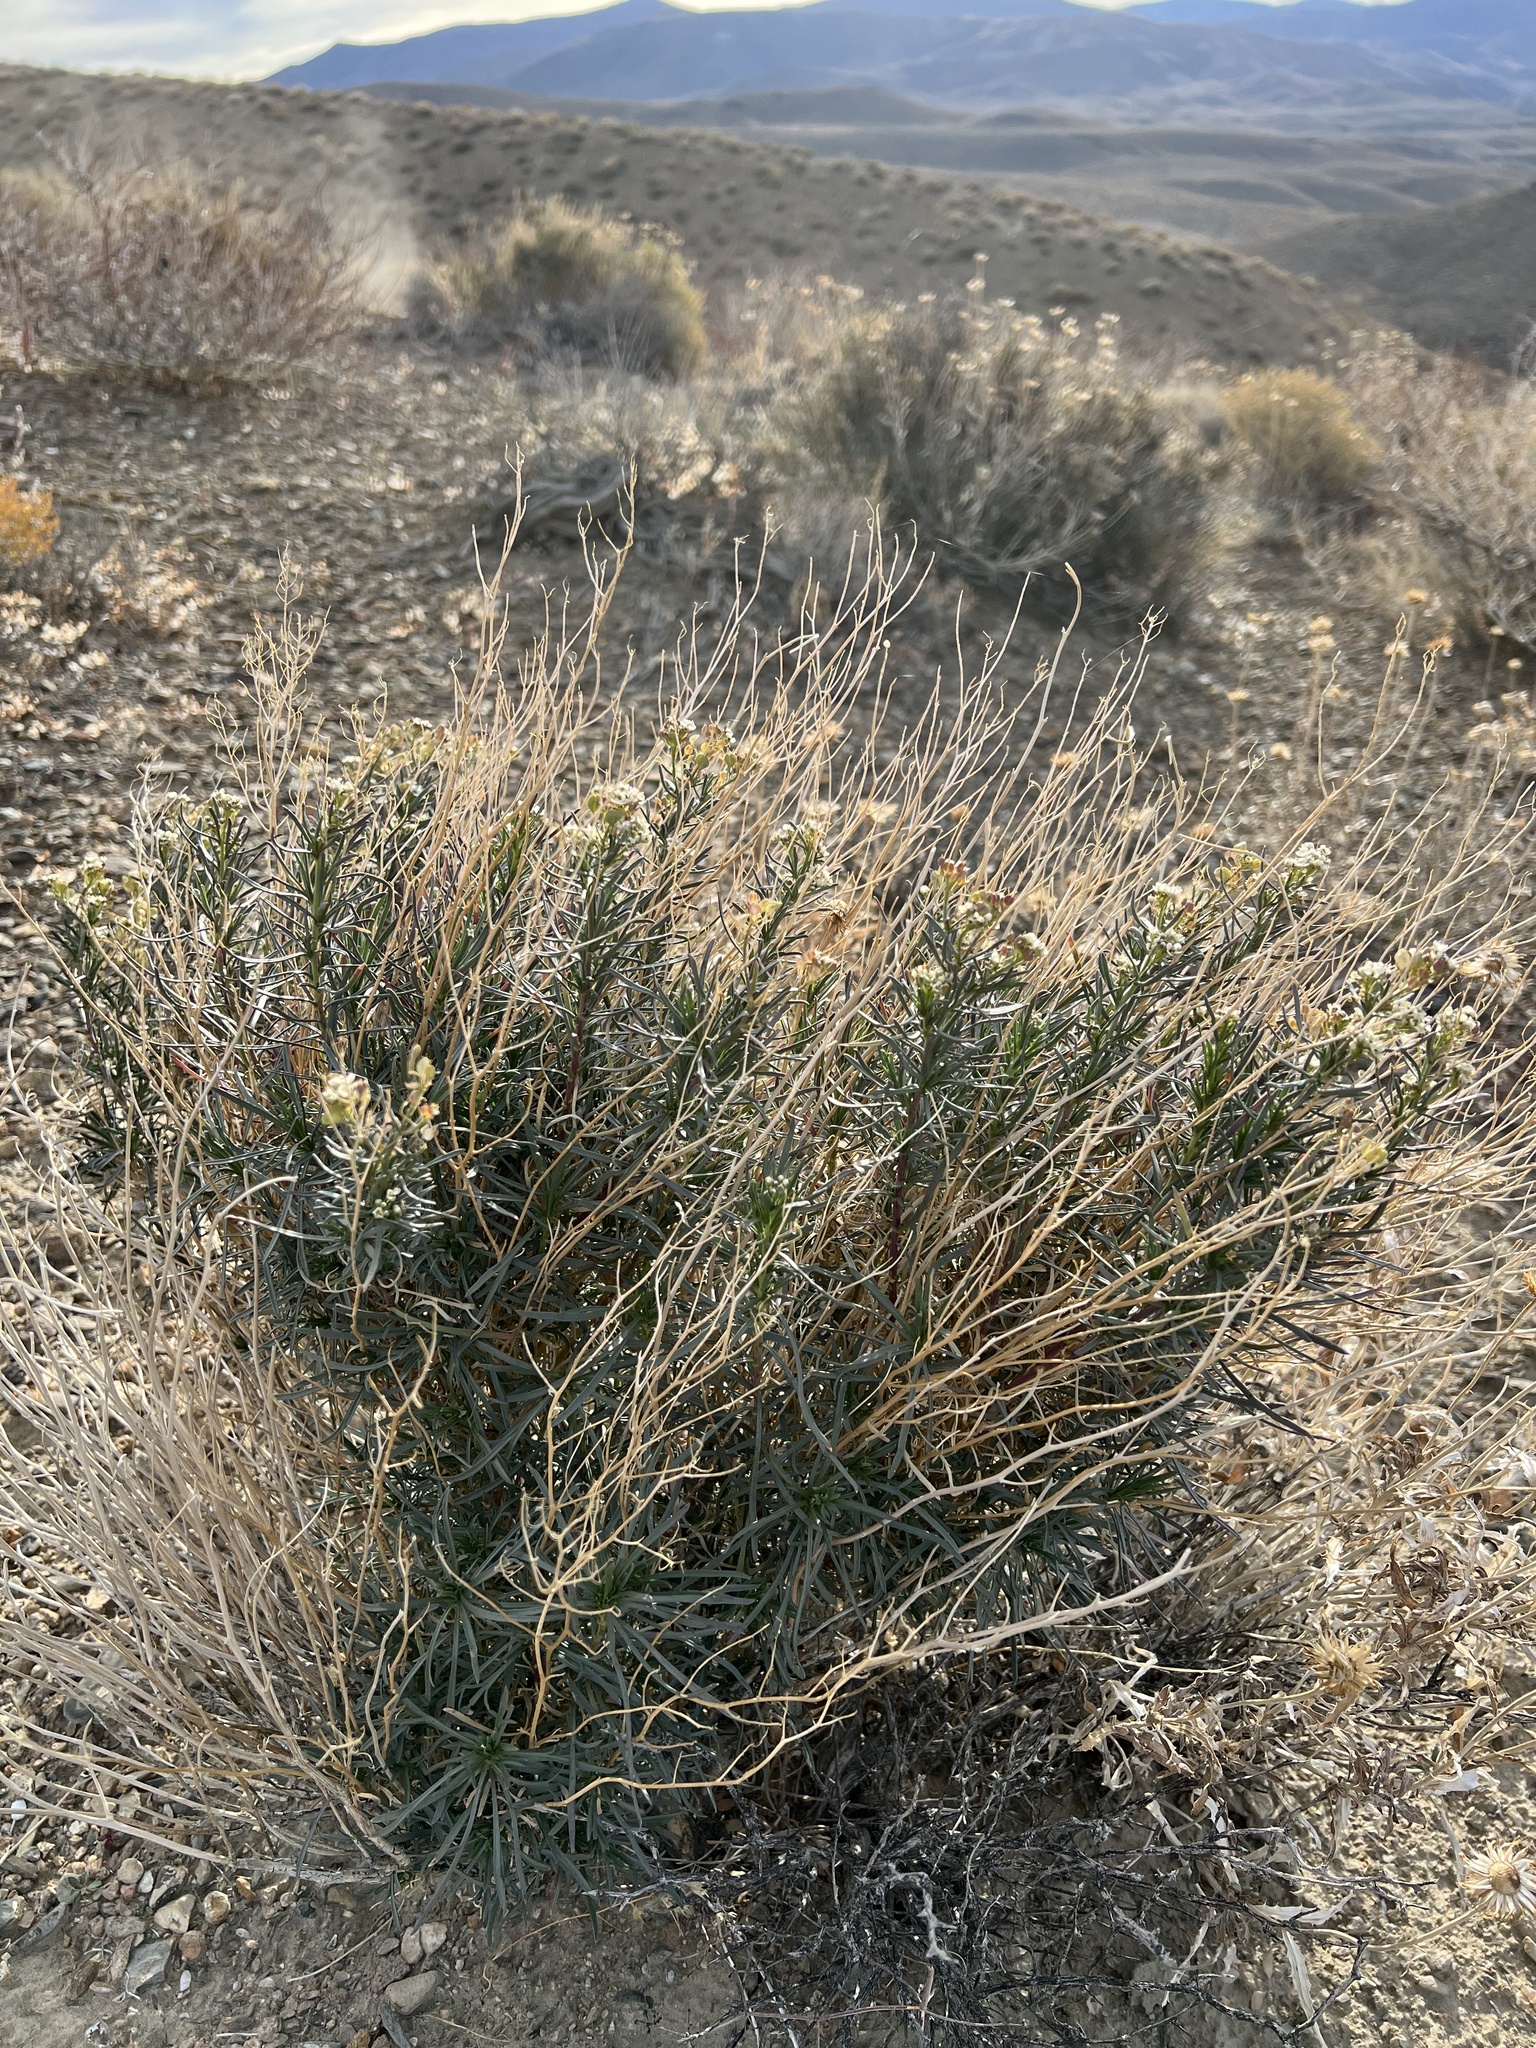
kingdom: Plantae
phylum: Tracheophyta
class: Magnoliopsida
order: Brassicales
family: Brassicaceae
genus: Lepidium
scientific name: Lepidium fremontii
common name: Fremont's pepperwort
